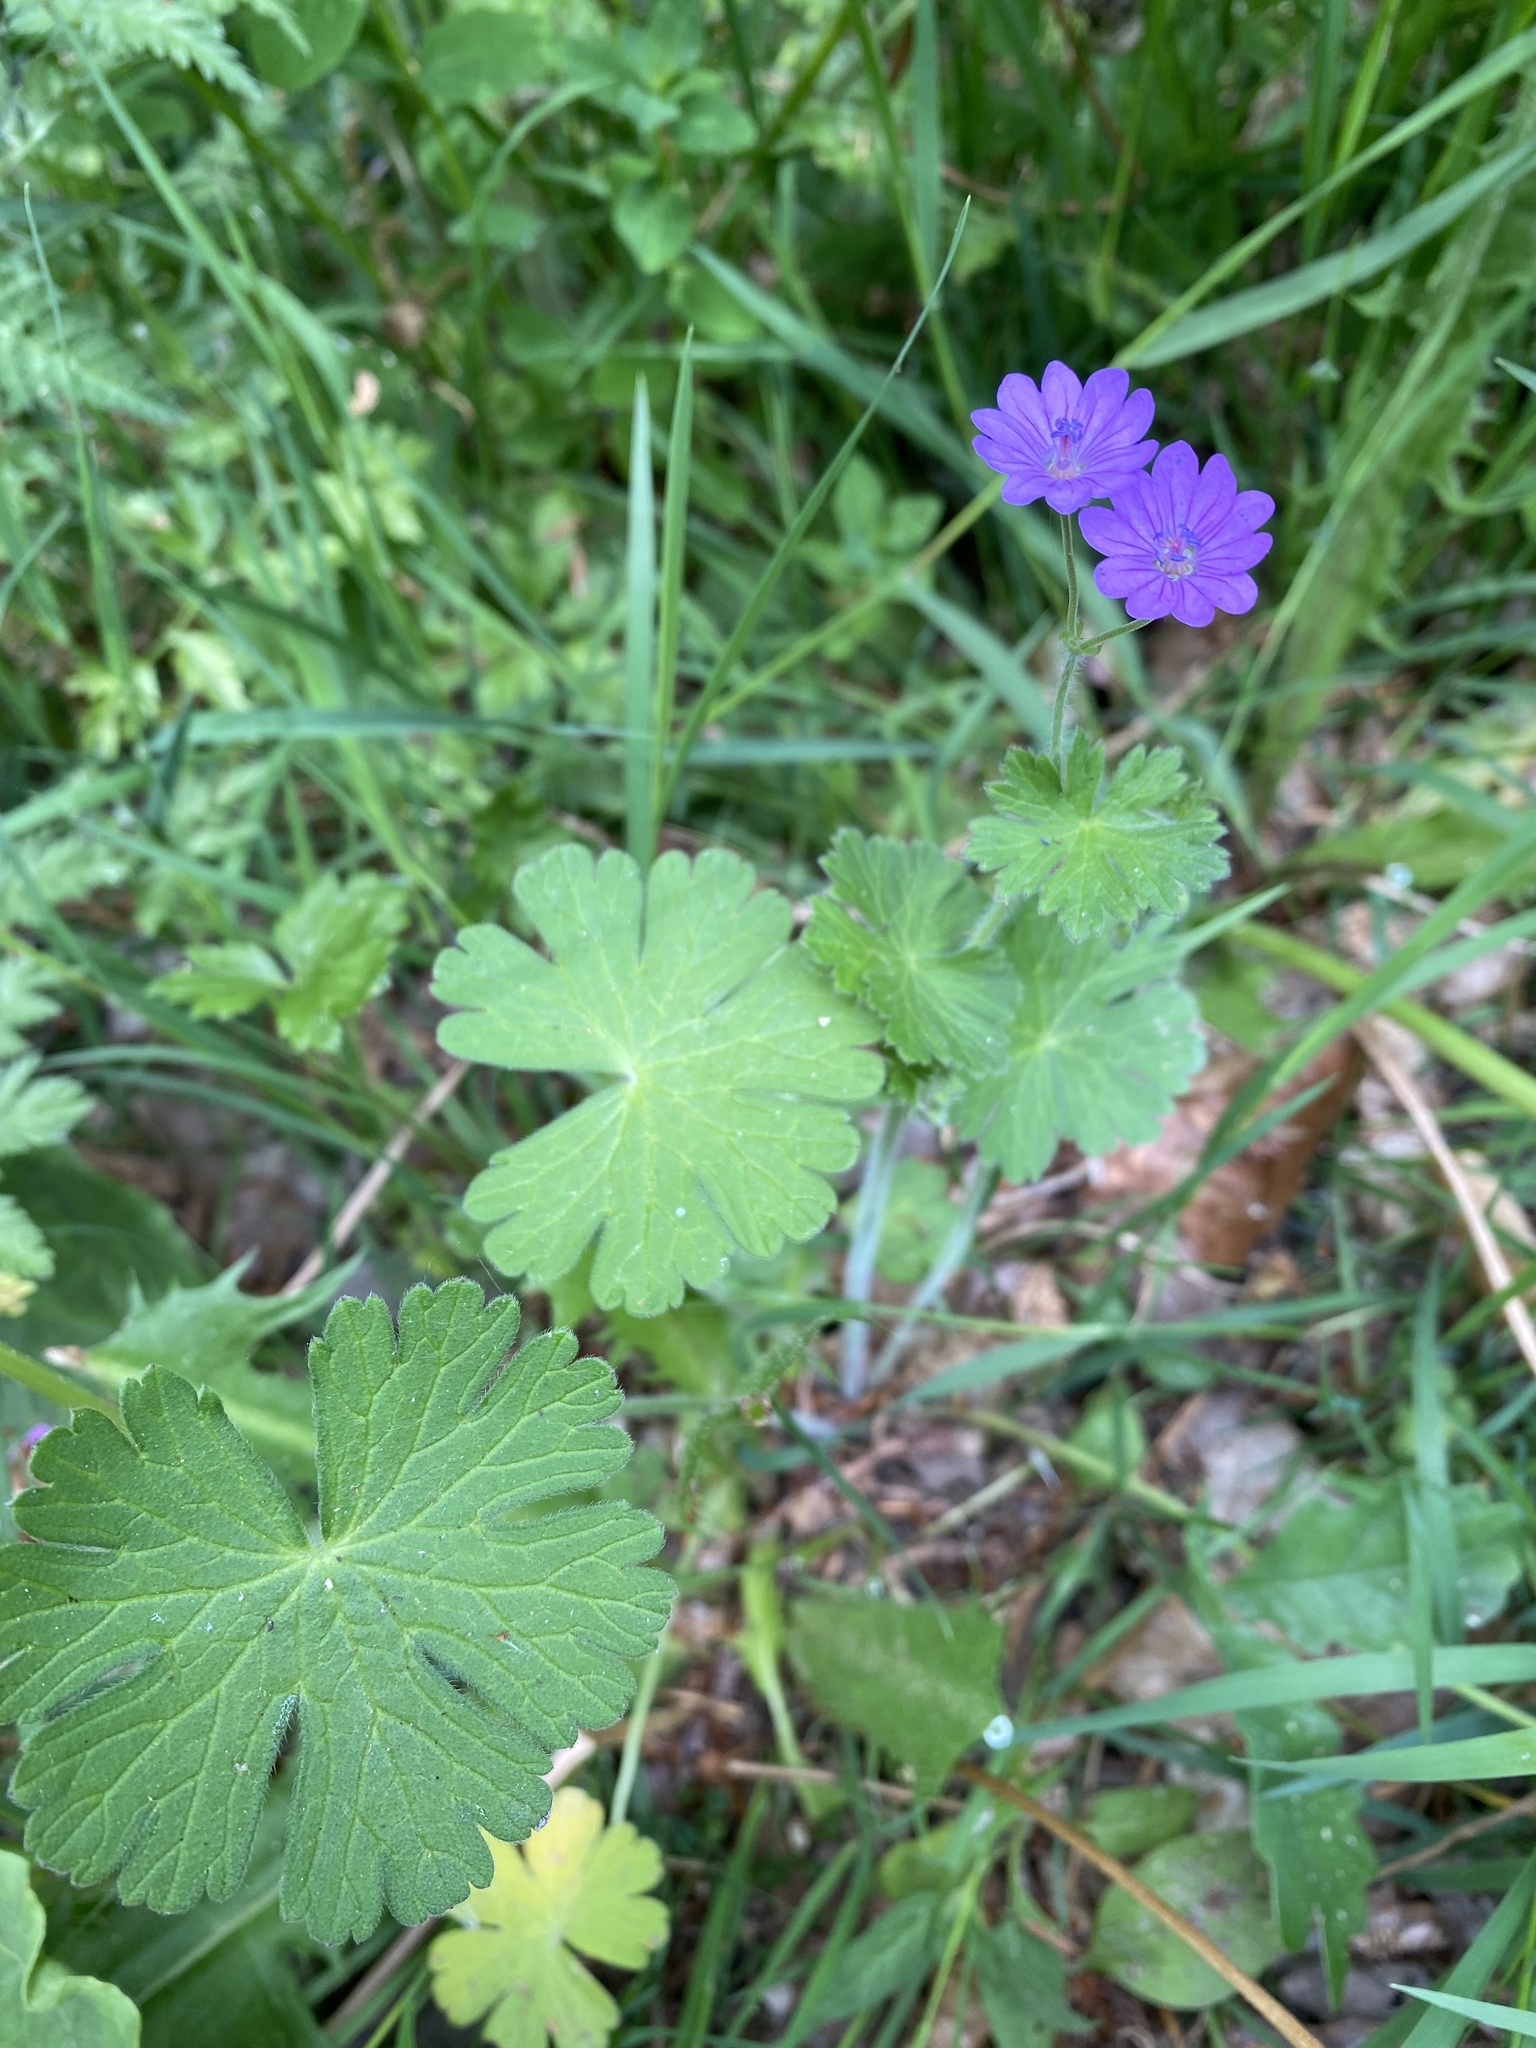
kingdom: Plantae
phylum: Tracheophyta
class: Magnoliopsida
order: Geraniales
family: Geraniaceae
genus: Geranium
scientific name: Geranium pyrenaicum
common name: Hedgerow crane's-bill
